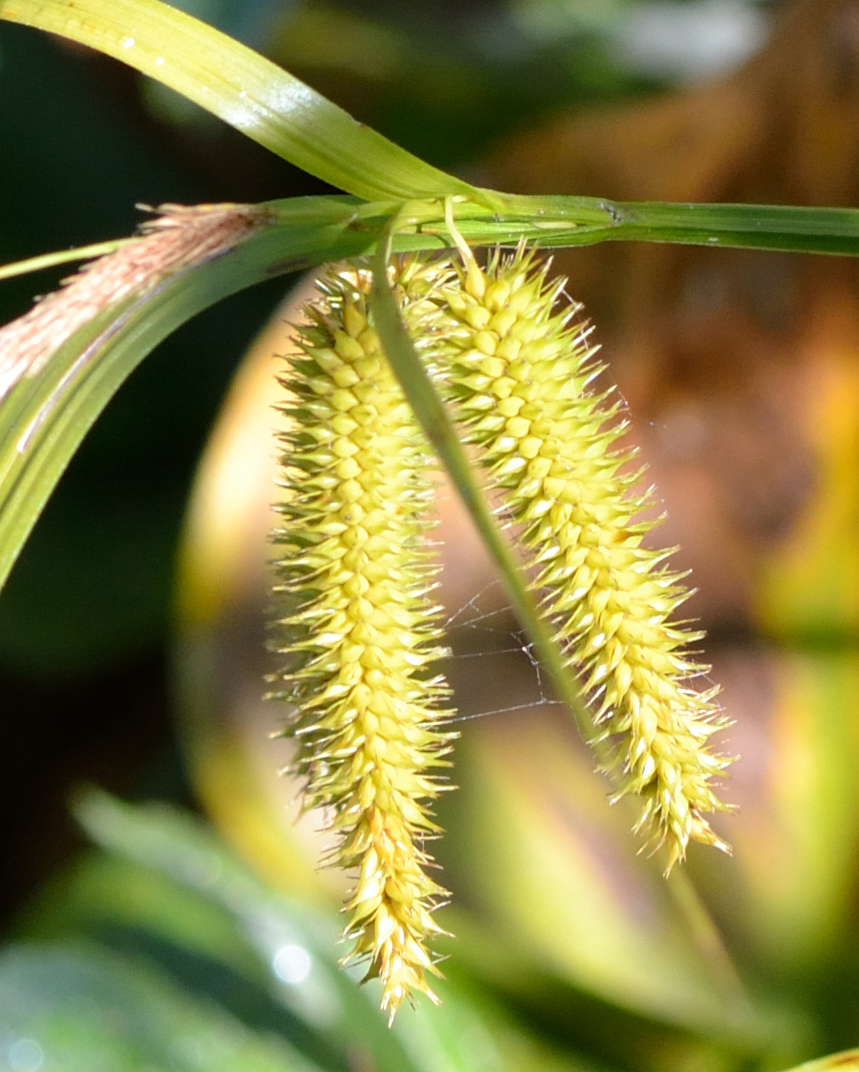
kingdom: Plantae
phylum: Tracheophyta
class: Liliopsida
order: Poales
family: Cyperaceae
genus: Carex
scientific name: Carex pseudocyperus
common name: Cyperus sedge
